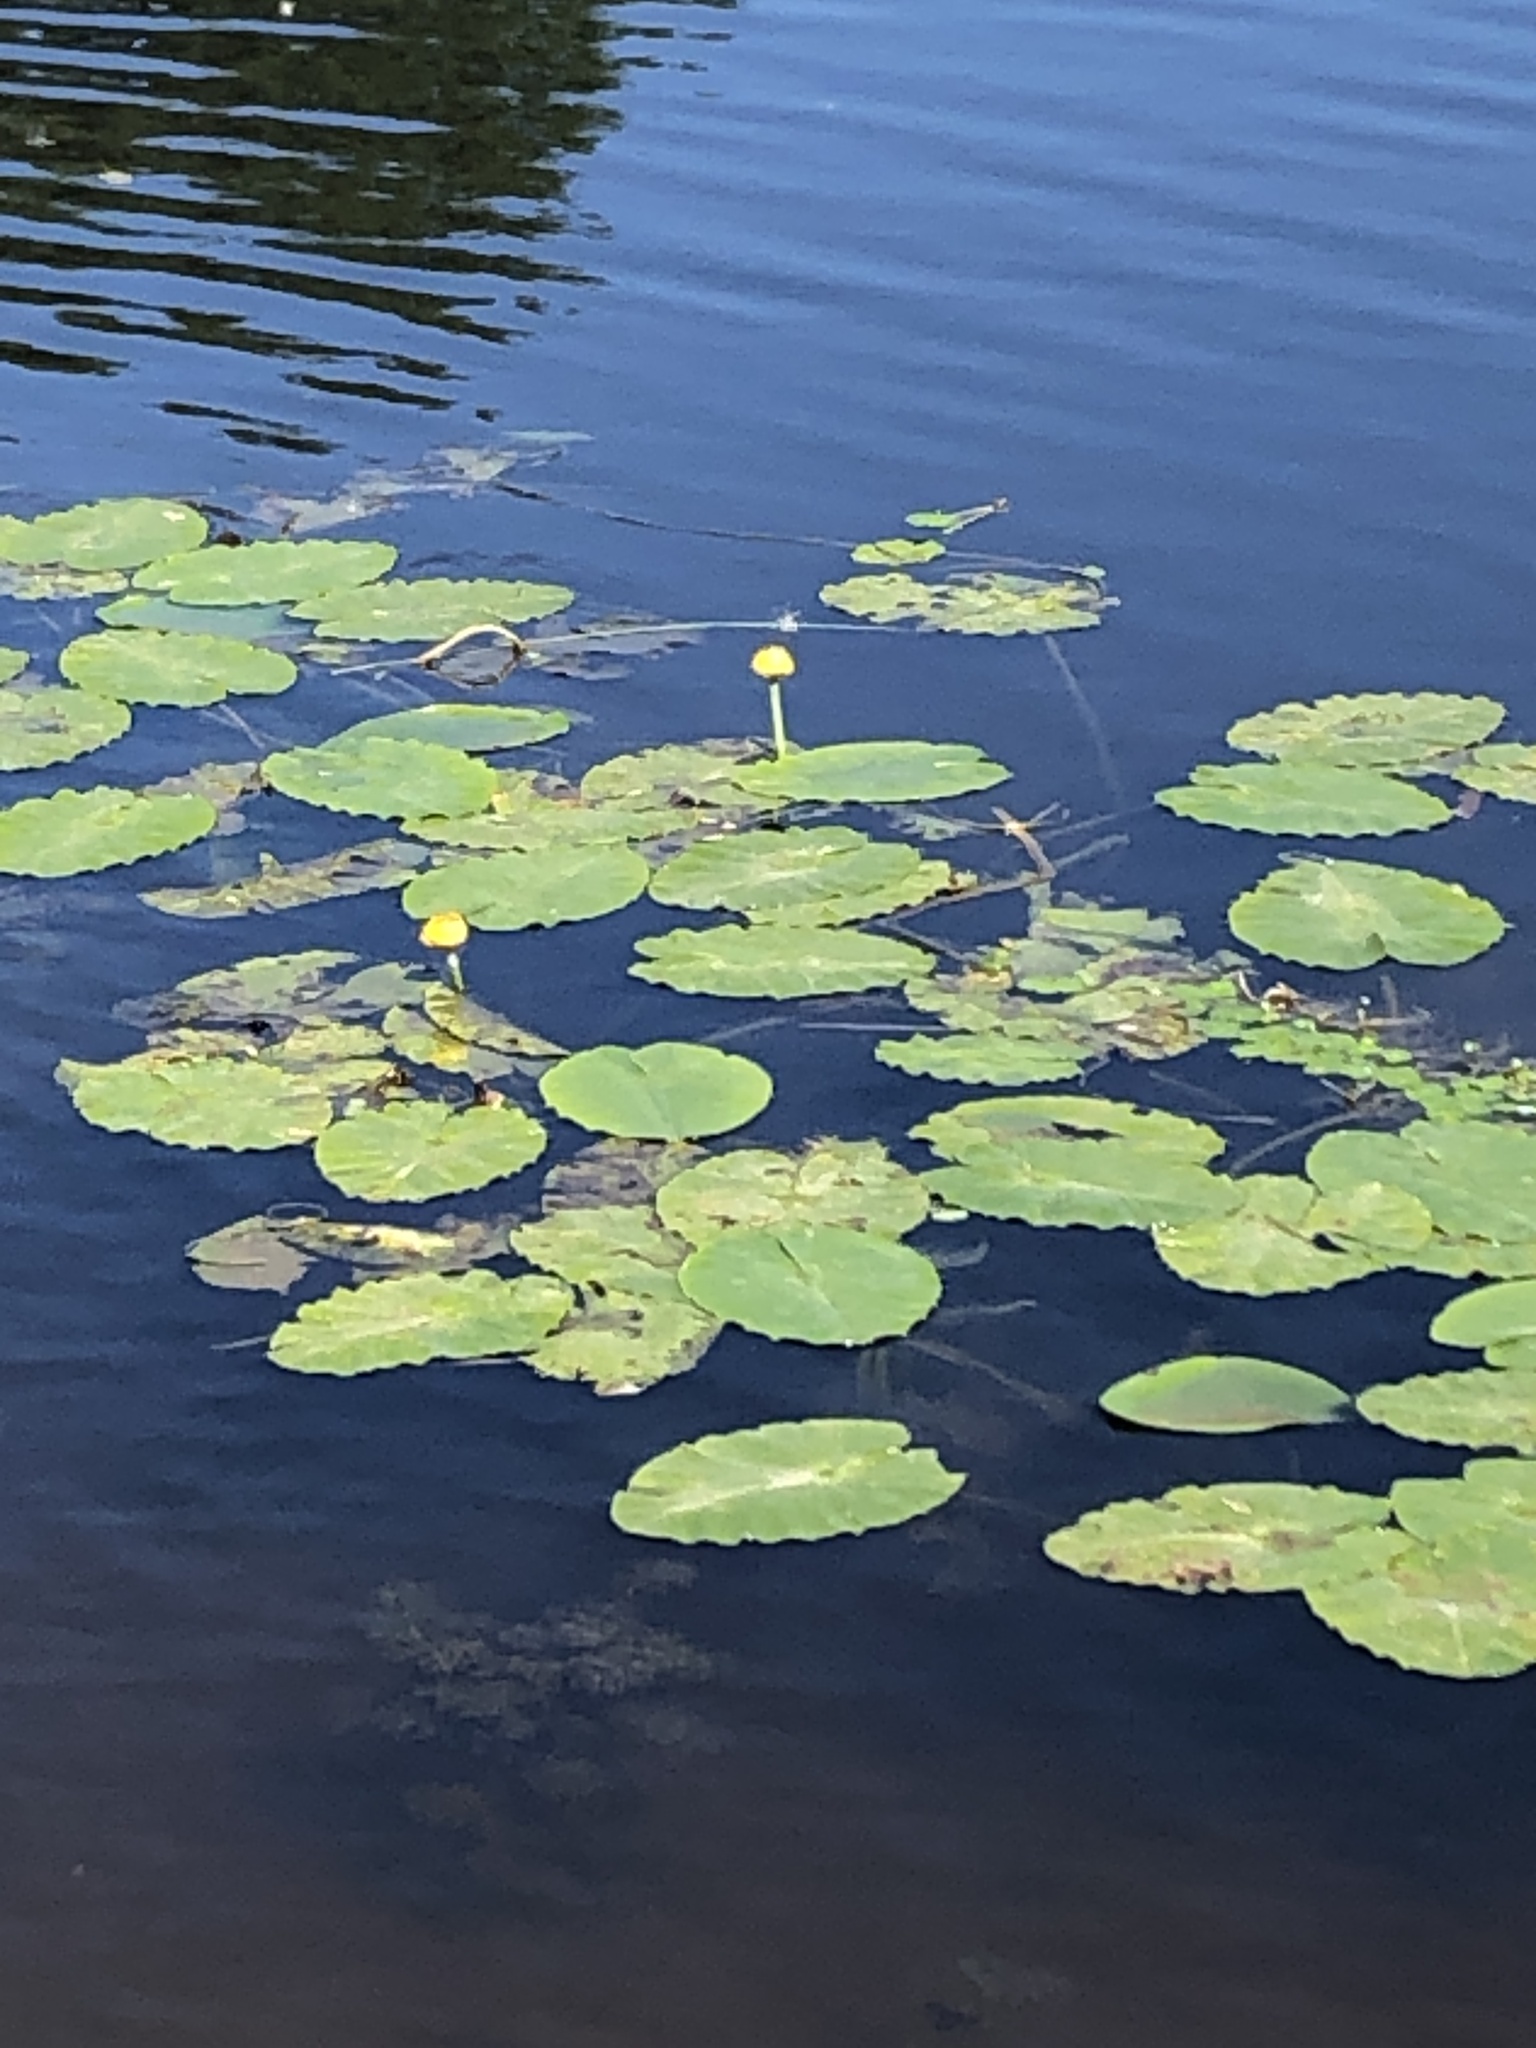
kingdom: Plantae
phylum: Tracheophyta
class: Magnoliopsida
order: Nymphaeales
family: Nymphaeaceae
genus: Nuphar
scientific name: Nuphar lutea
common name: Yellow water-lily
